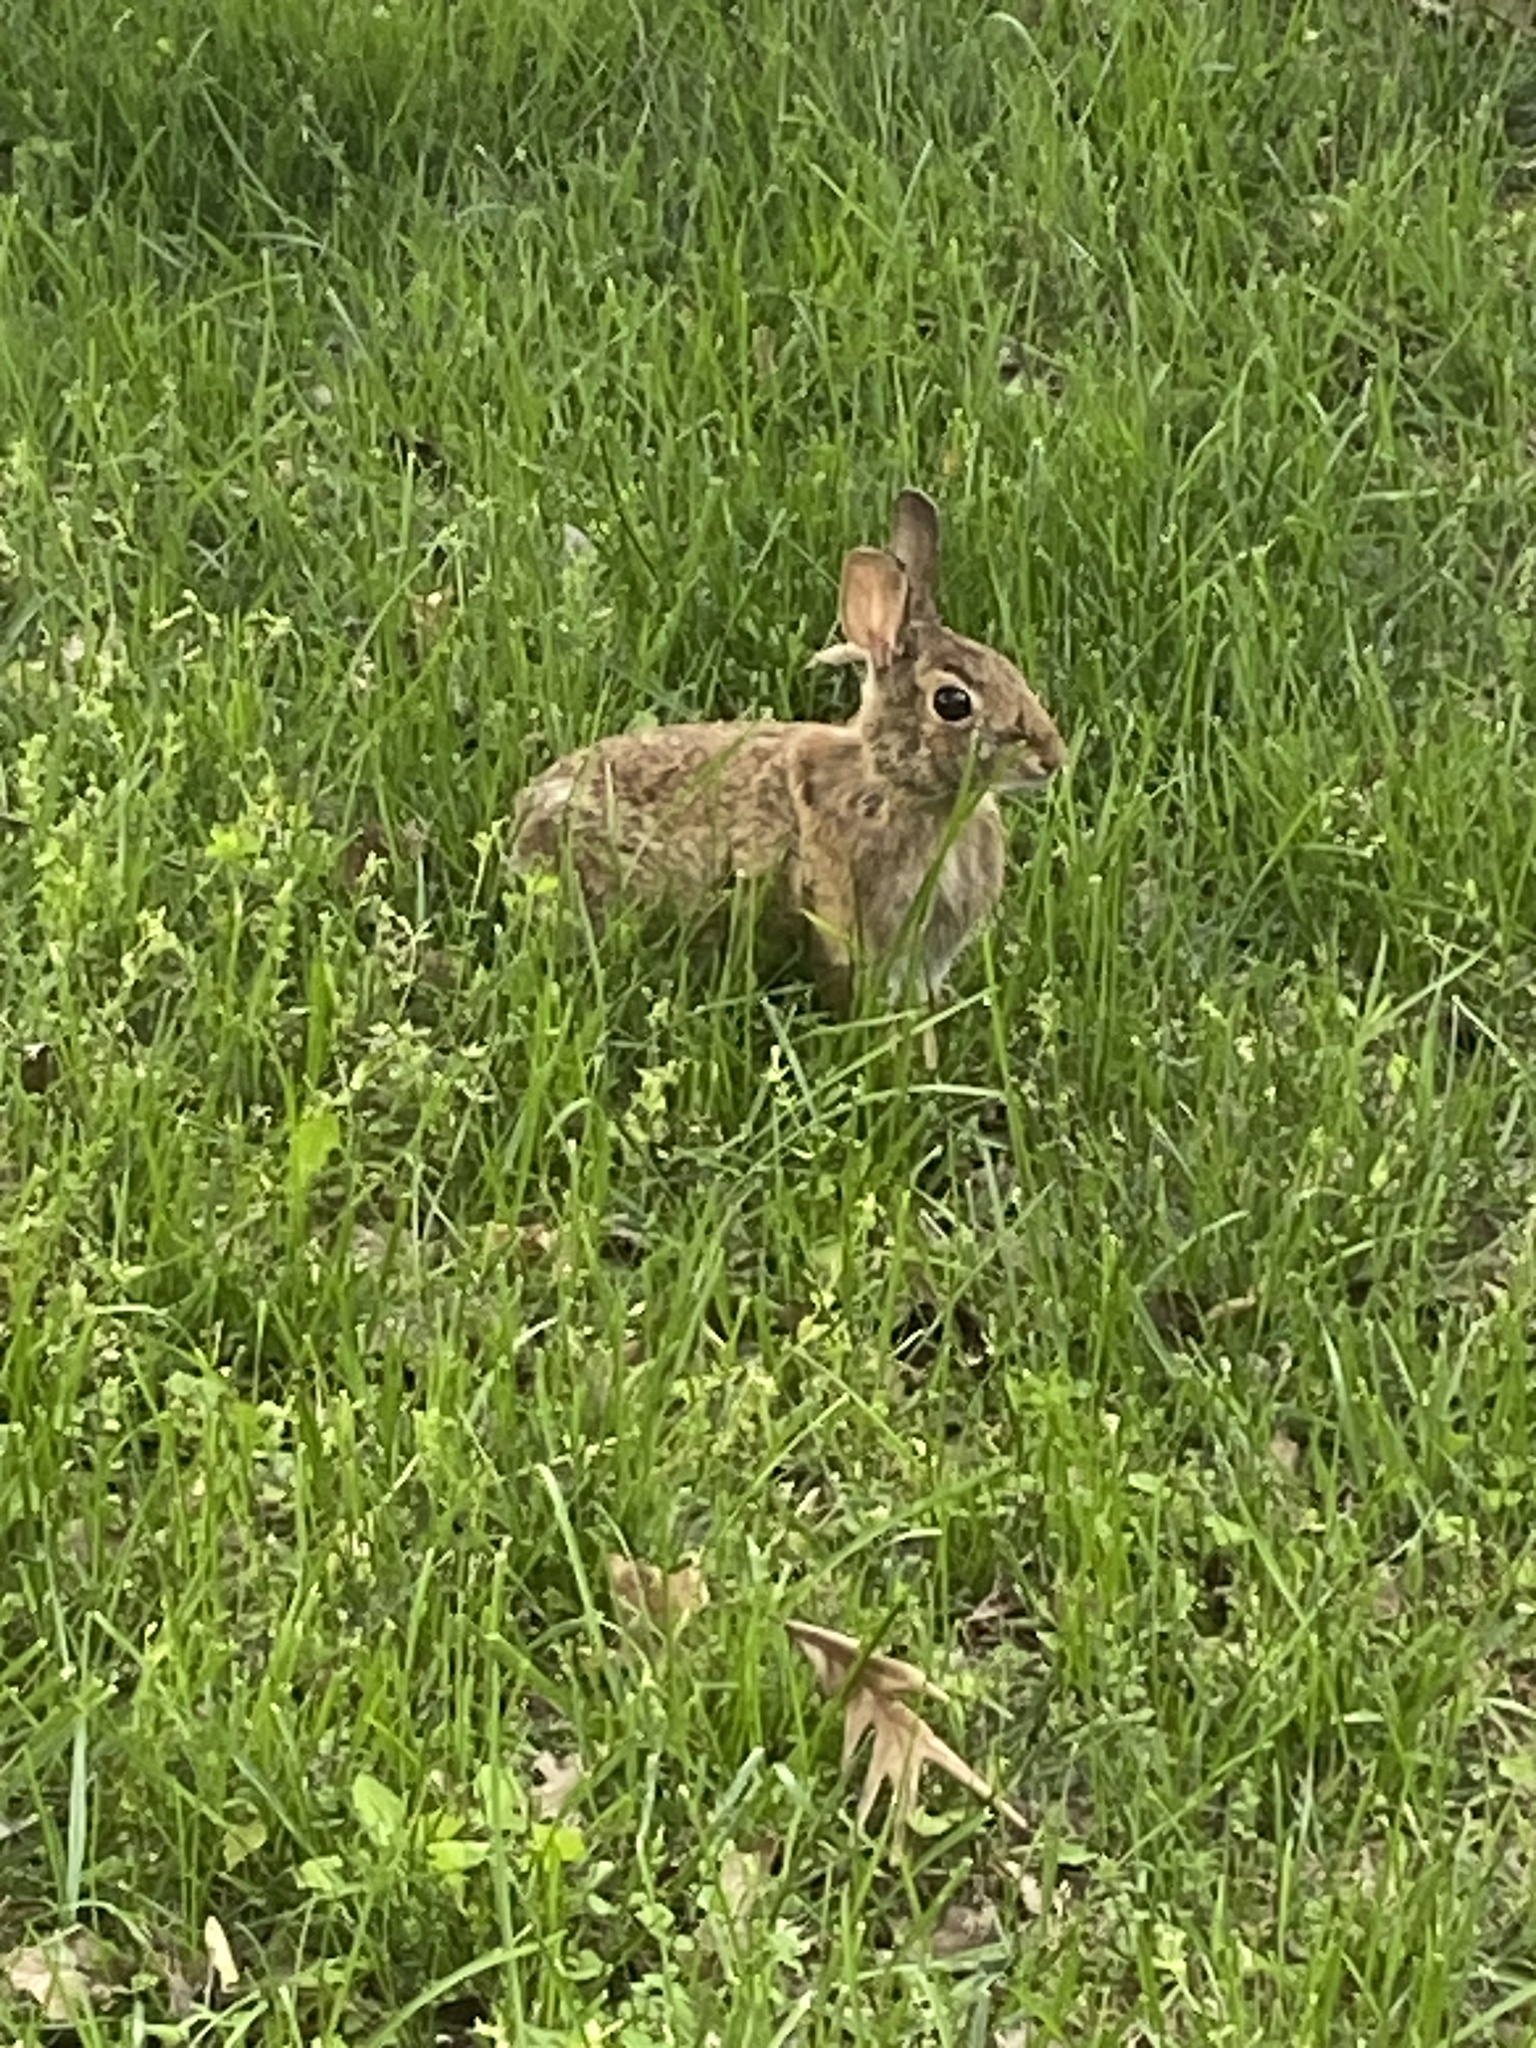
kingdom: Animalia
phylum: Chordata
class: Mammalia
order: Lagomorpha
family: Leporidae
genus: Sylvilagus
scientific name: Sylvilagus floridanus
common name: Eastern cottontail
